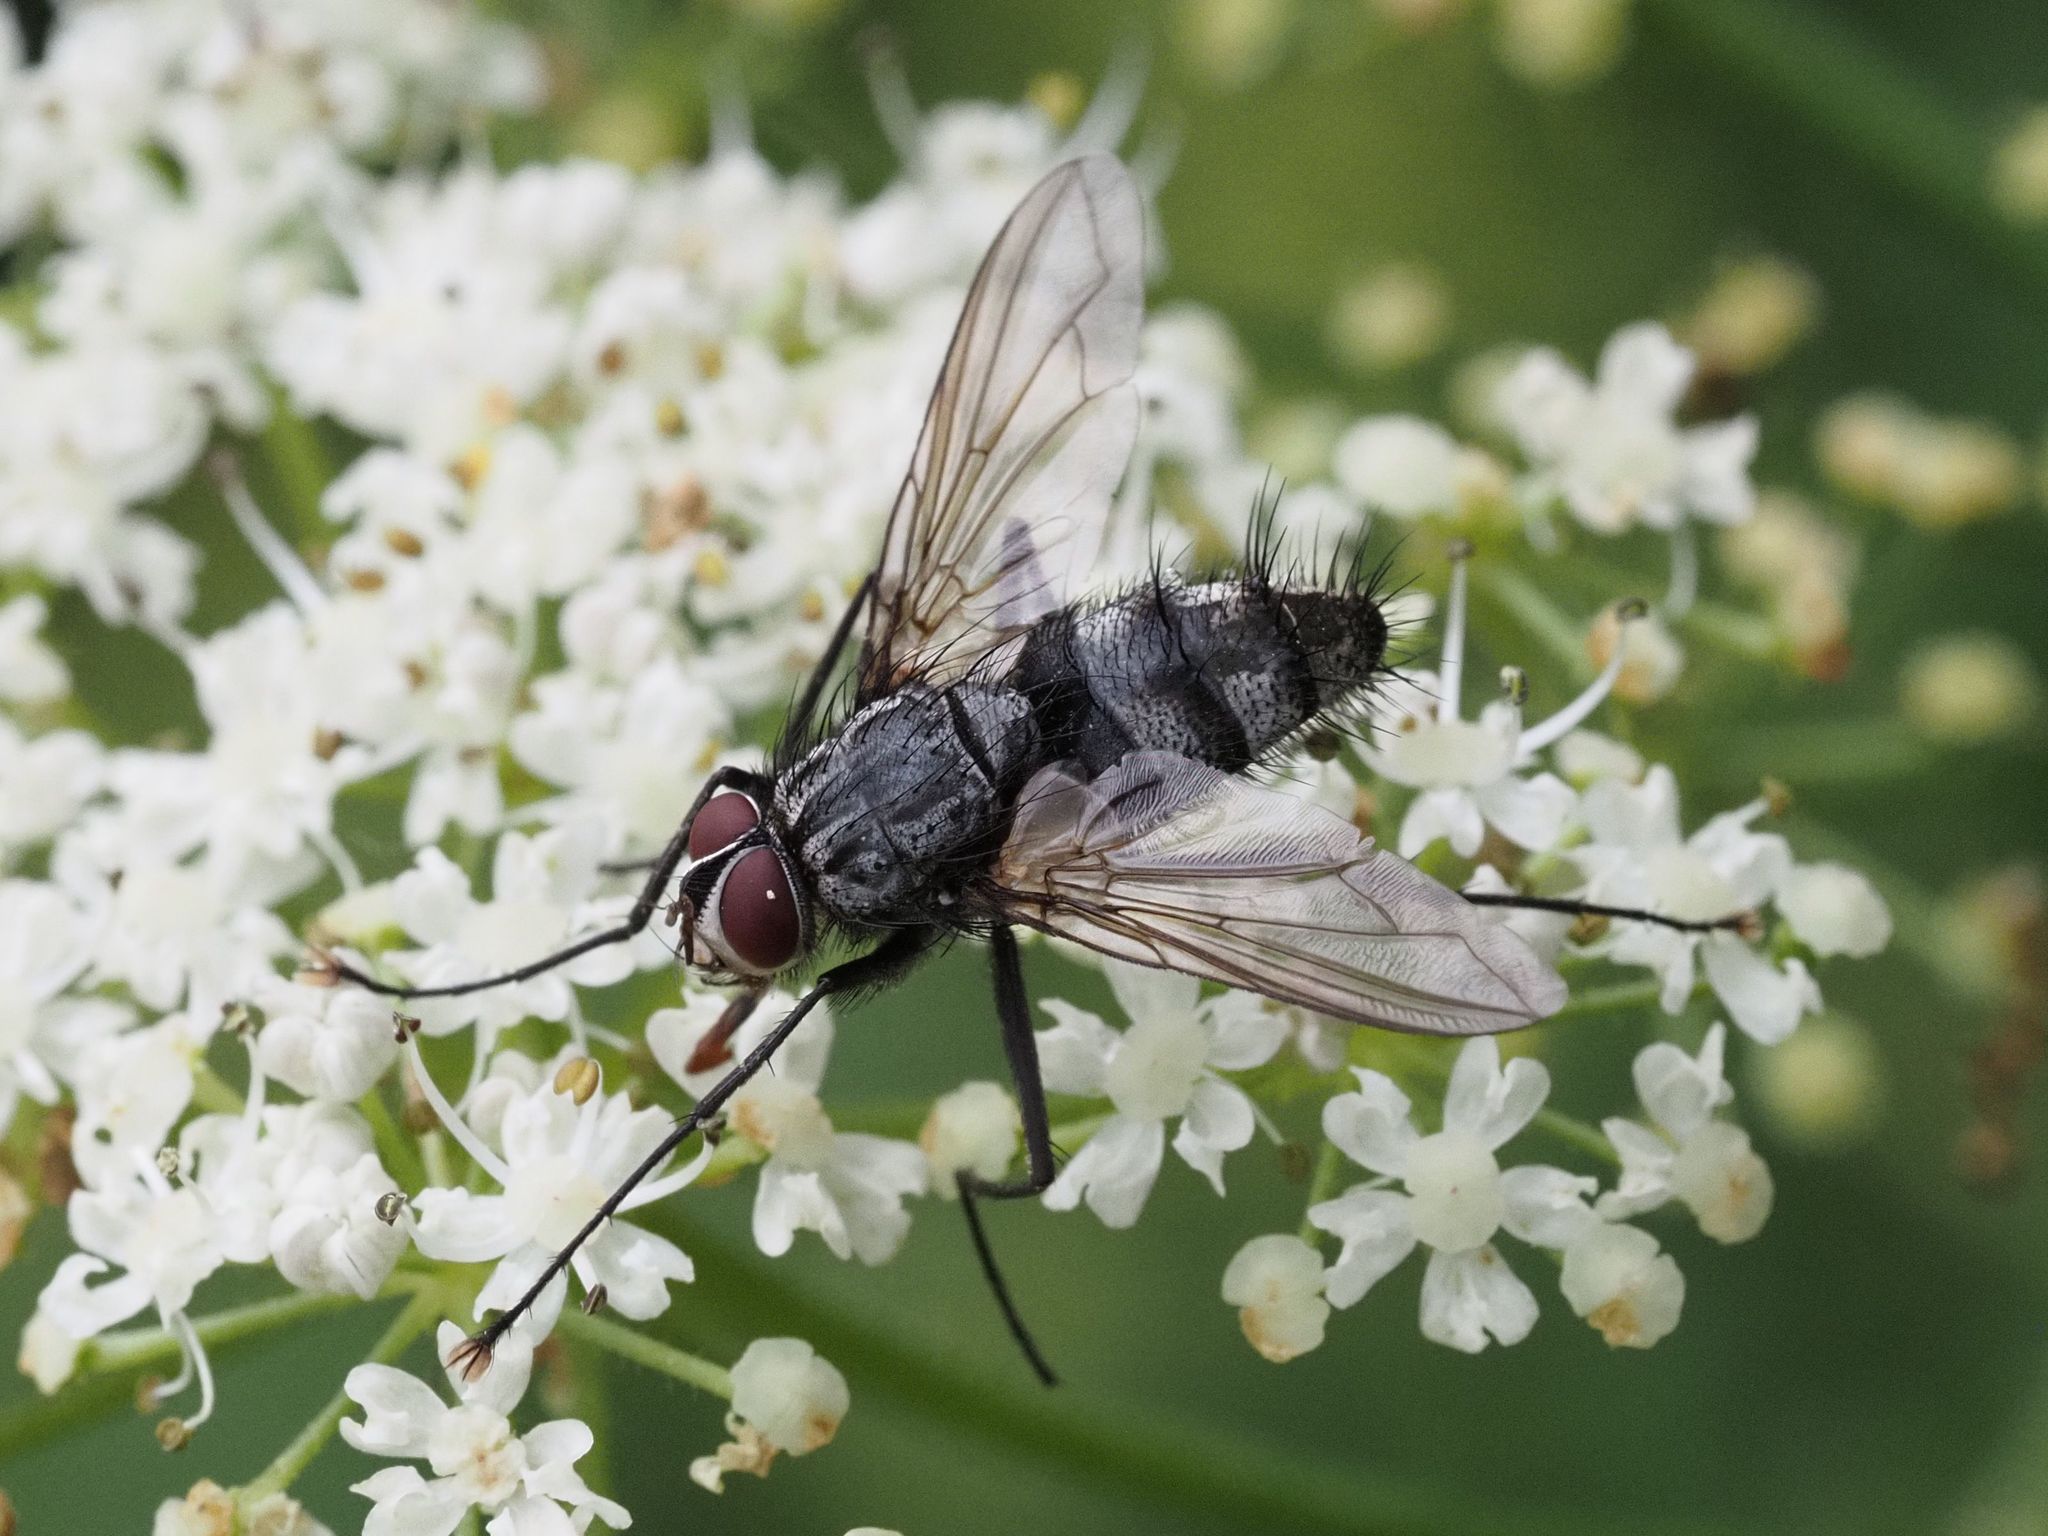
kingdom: Animalia
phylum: Arthropoda
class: Insecta
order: Diptera
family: Tachinidae
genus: Dinera
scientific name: Dinera ferina
